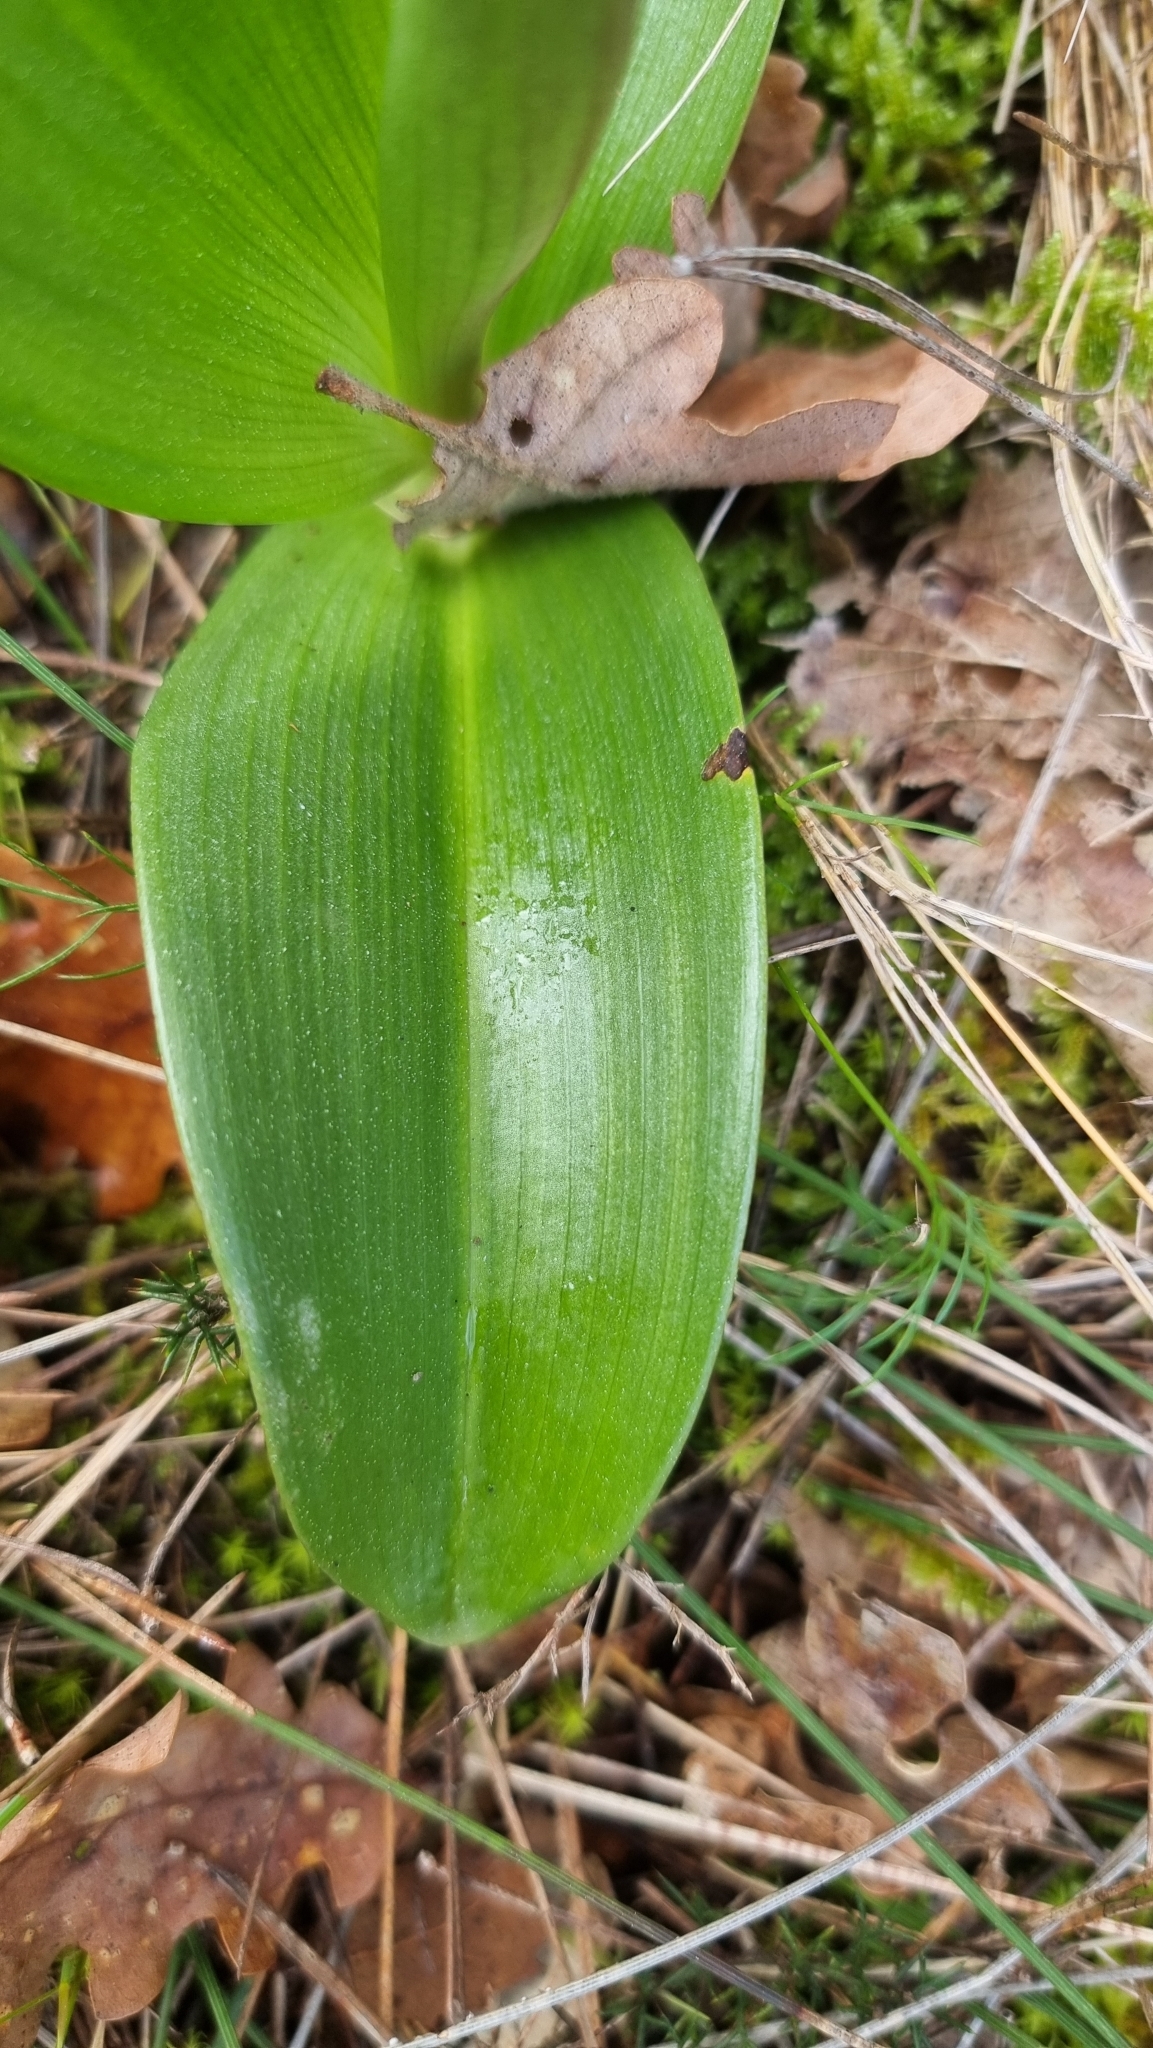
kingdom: Plantae
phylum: Tracheophyta
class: Liliopsida
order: Asparagales
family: Orchidaceae
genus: Himantoglossum
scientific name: Himantoglossum robertianum
